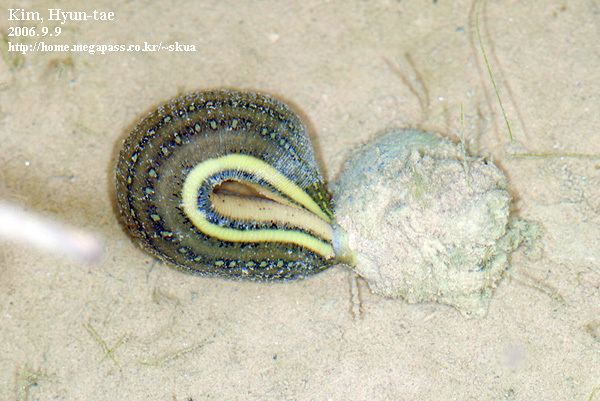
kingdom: Animalia
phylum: Annelida
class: Clitellata
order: Arhynchobdellida
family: Hirudinidae
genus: Whitmania
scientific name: Whitmania pigra
